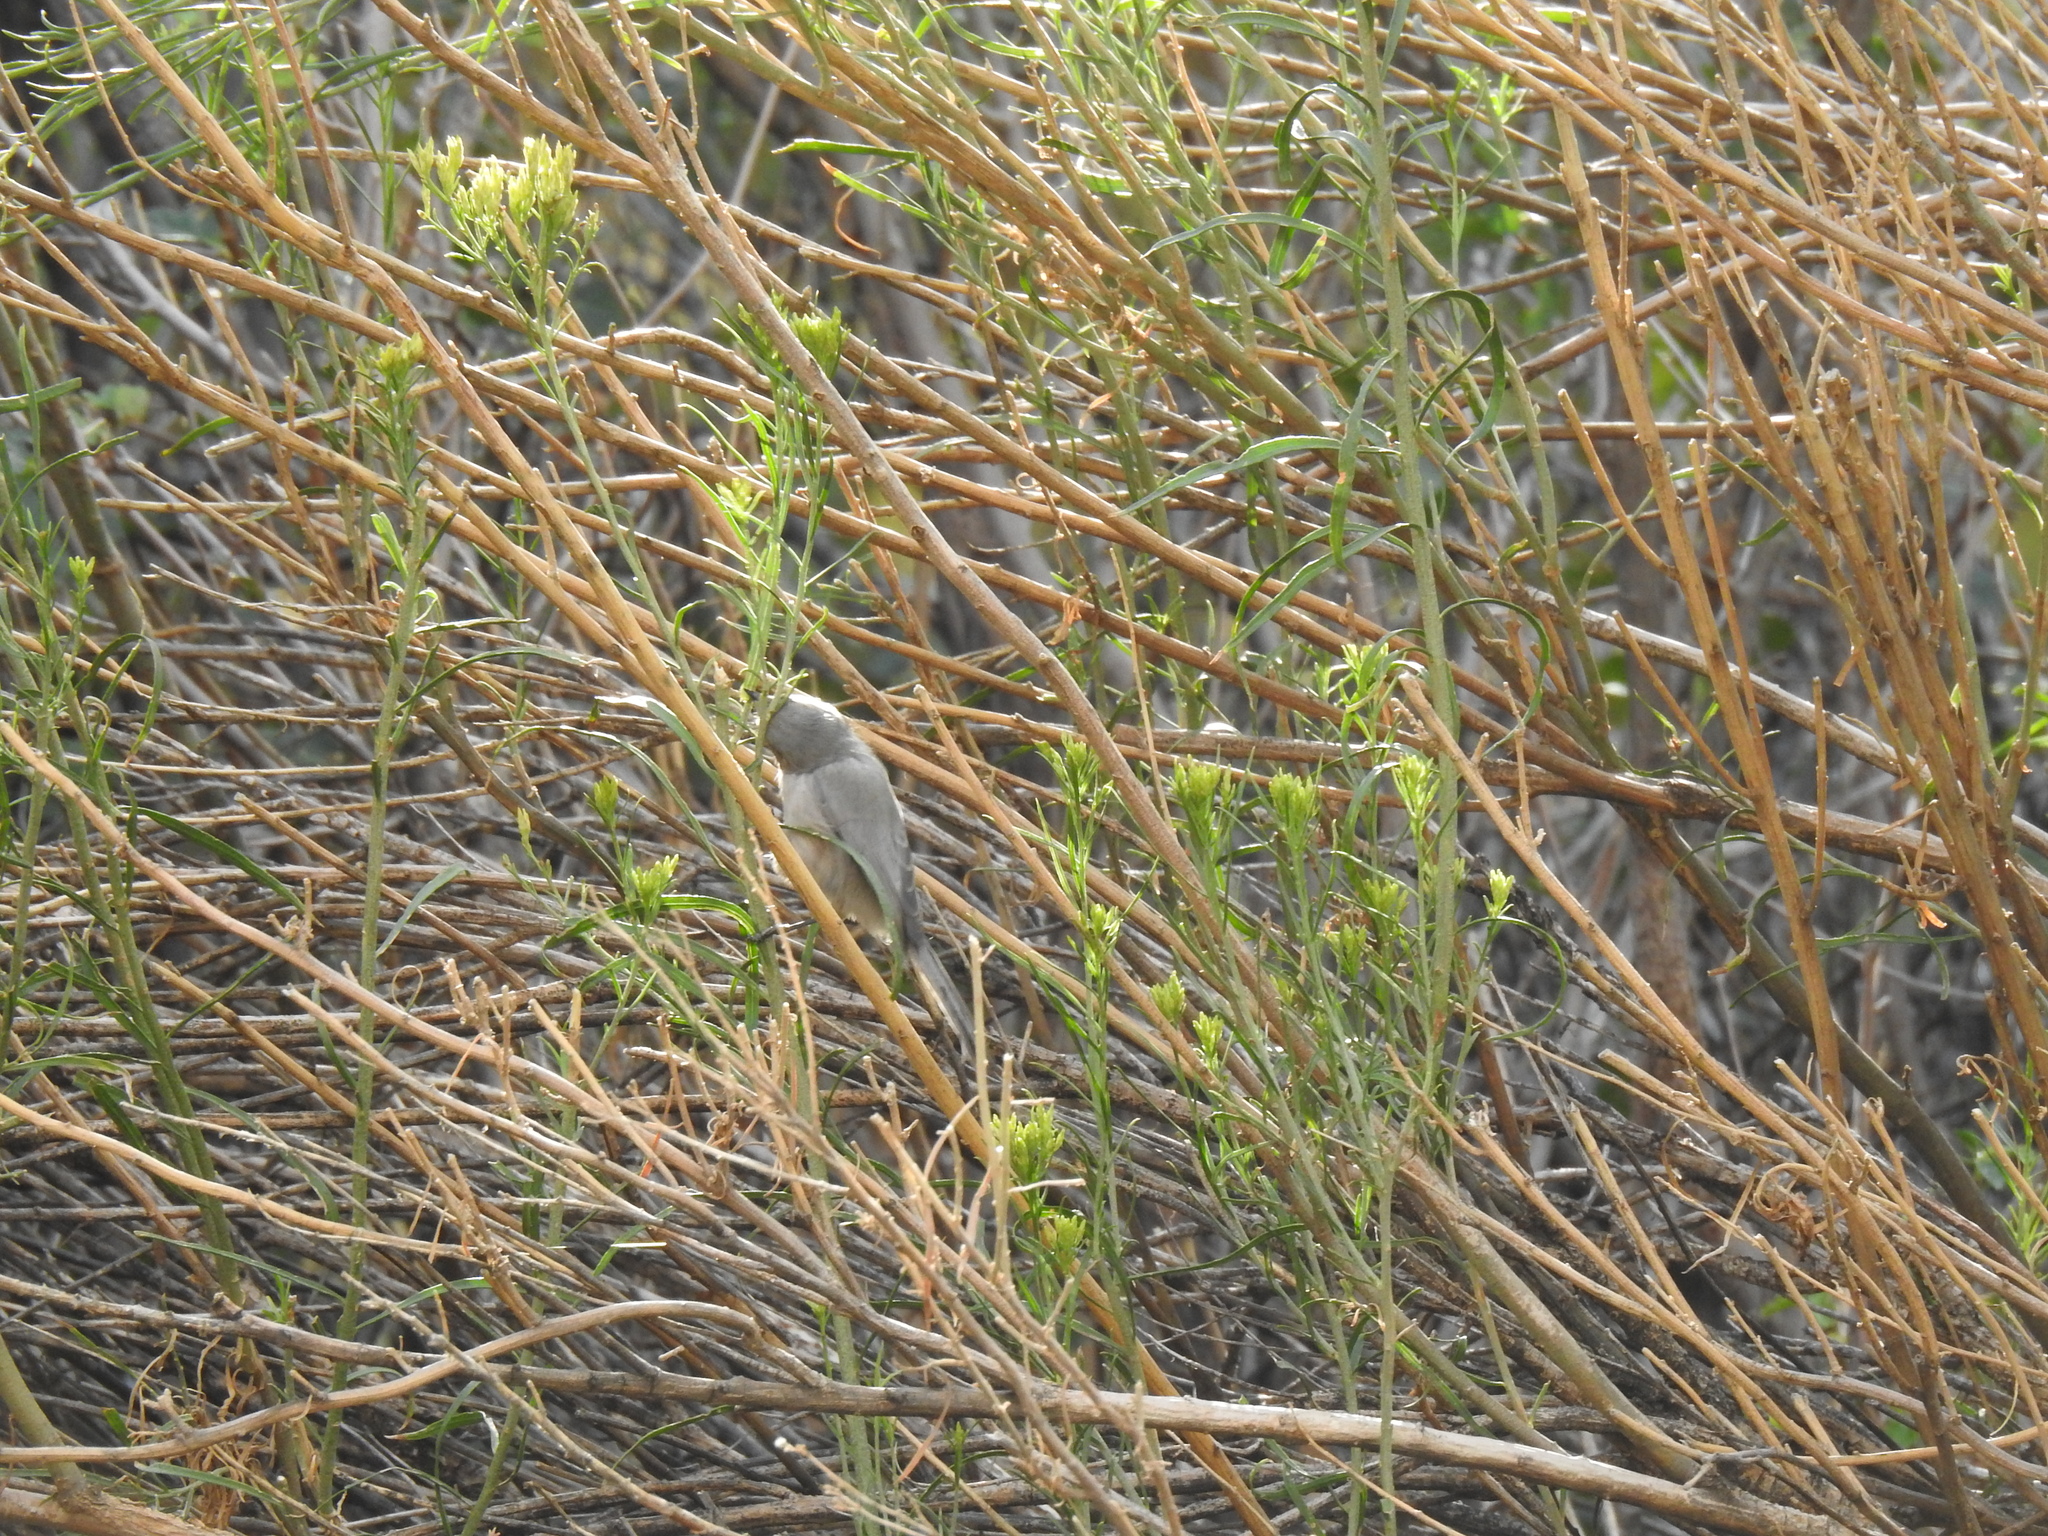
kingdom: Animalia
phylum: Chordata
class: Aves
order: Passeriformes
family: Aegithalidae
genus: Psaltriparus
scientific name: Psaltriparus minimus
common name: American bushtit
